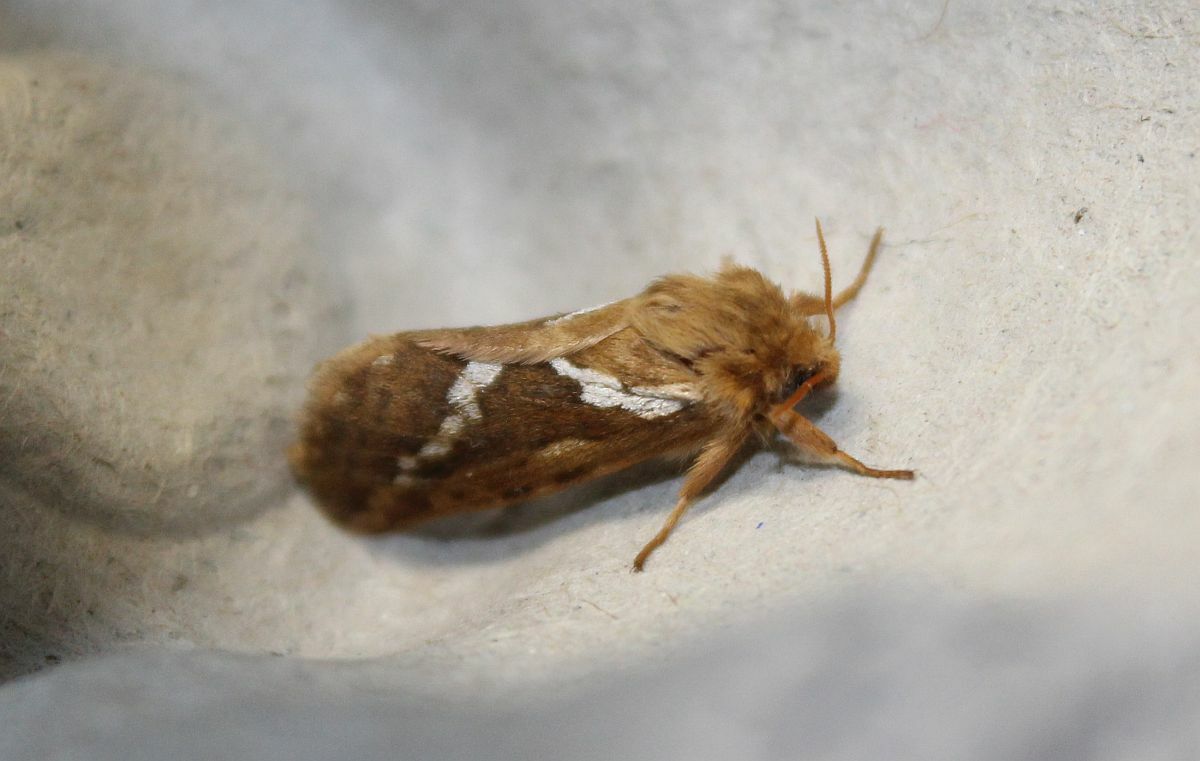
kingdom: Animalia
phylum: Arthropoda
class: Insecta
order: Lepidoptera
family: Hepialidae
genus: Korscheltellus
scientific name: Korscheltellus lupulina
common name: Common swift
